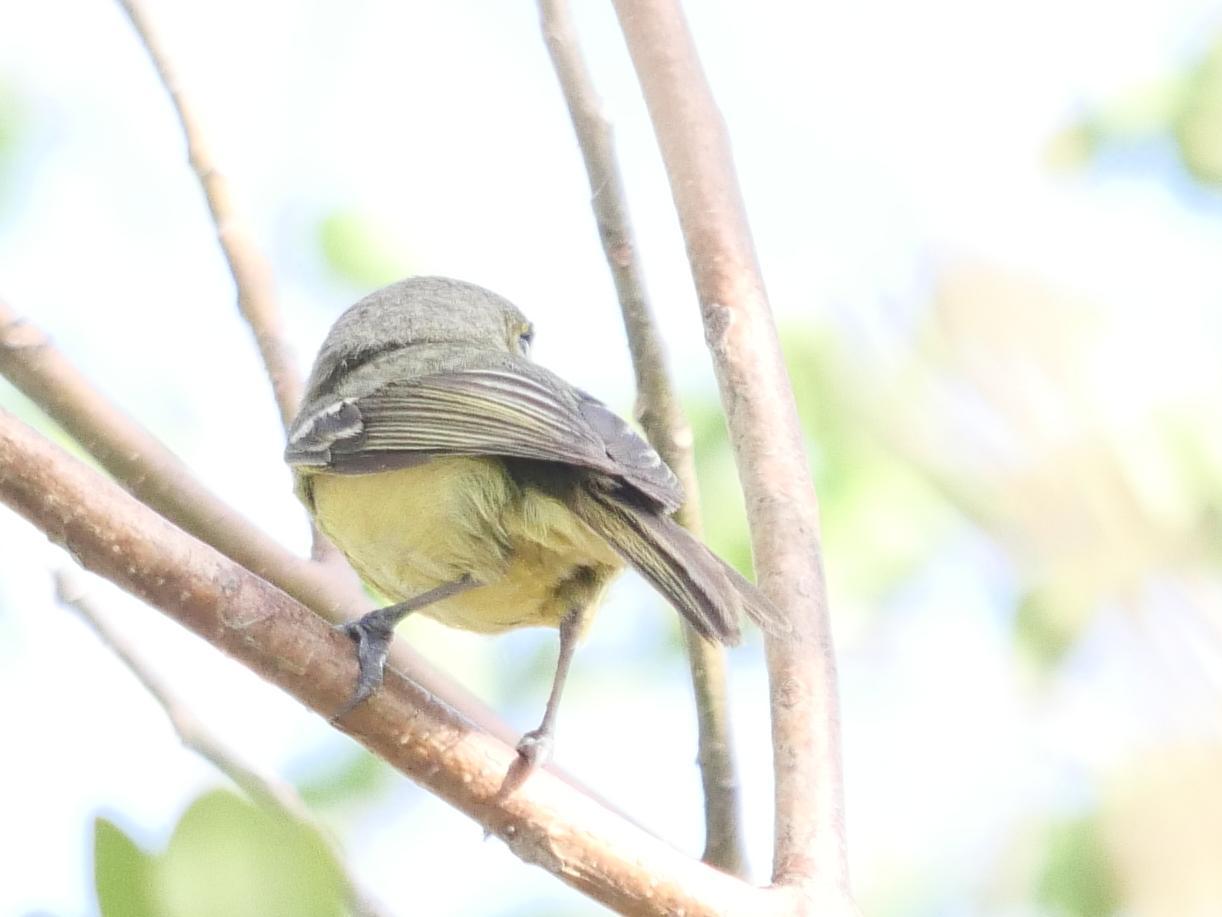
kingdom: Animalia
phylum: Chordata
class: Aves
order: Passeriformes
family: Vireonidae
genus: Vireo
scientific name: Vireo crassirostris
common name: Thick-billed vireo
